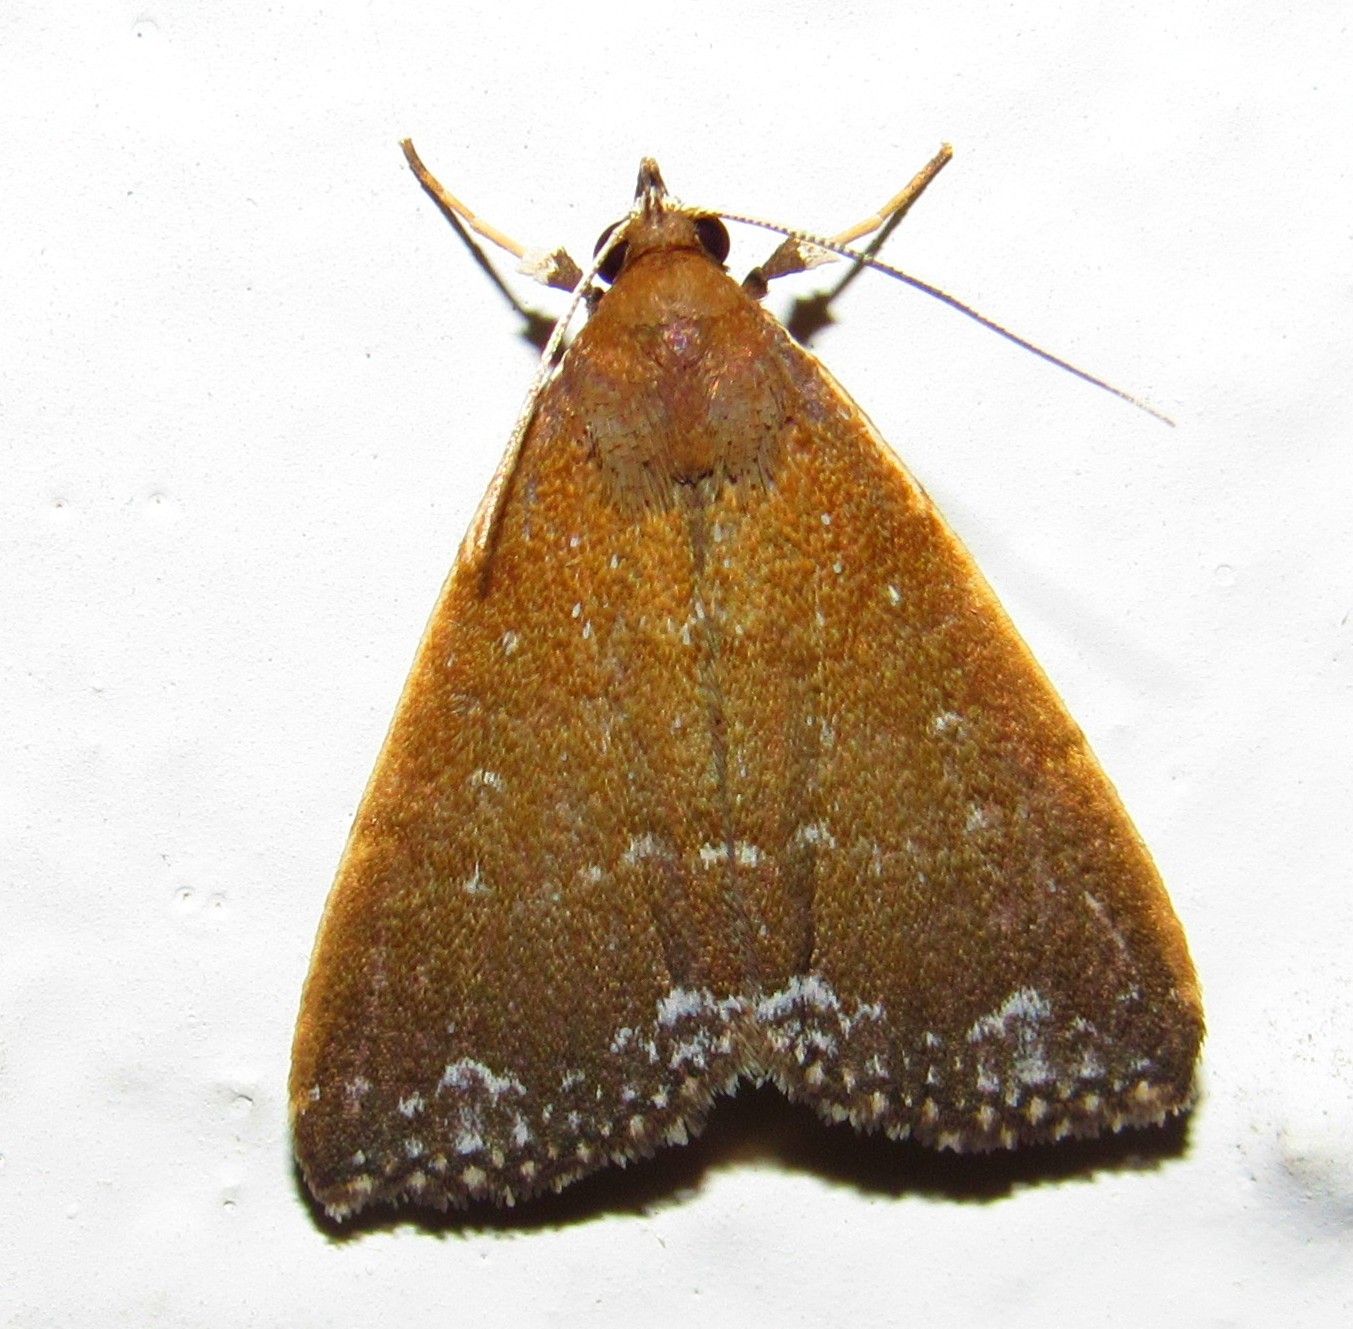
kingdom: Animalia
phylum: Arthropoda
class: Insecta
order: Lepidoptera
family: Erebidae
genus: Aristaria
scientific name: Aristaria theroalis
